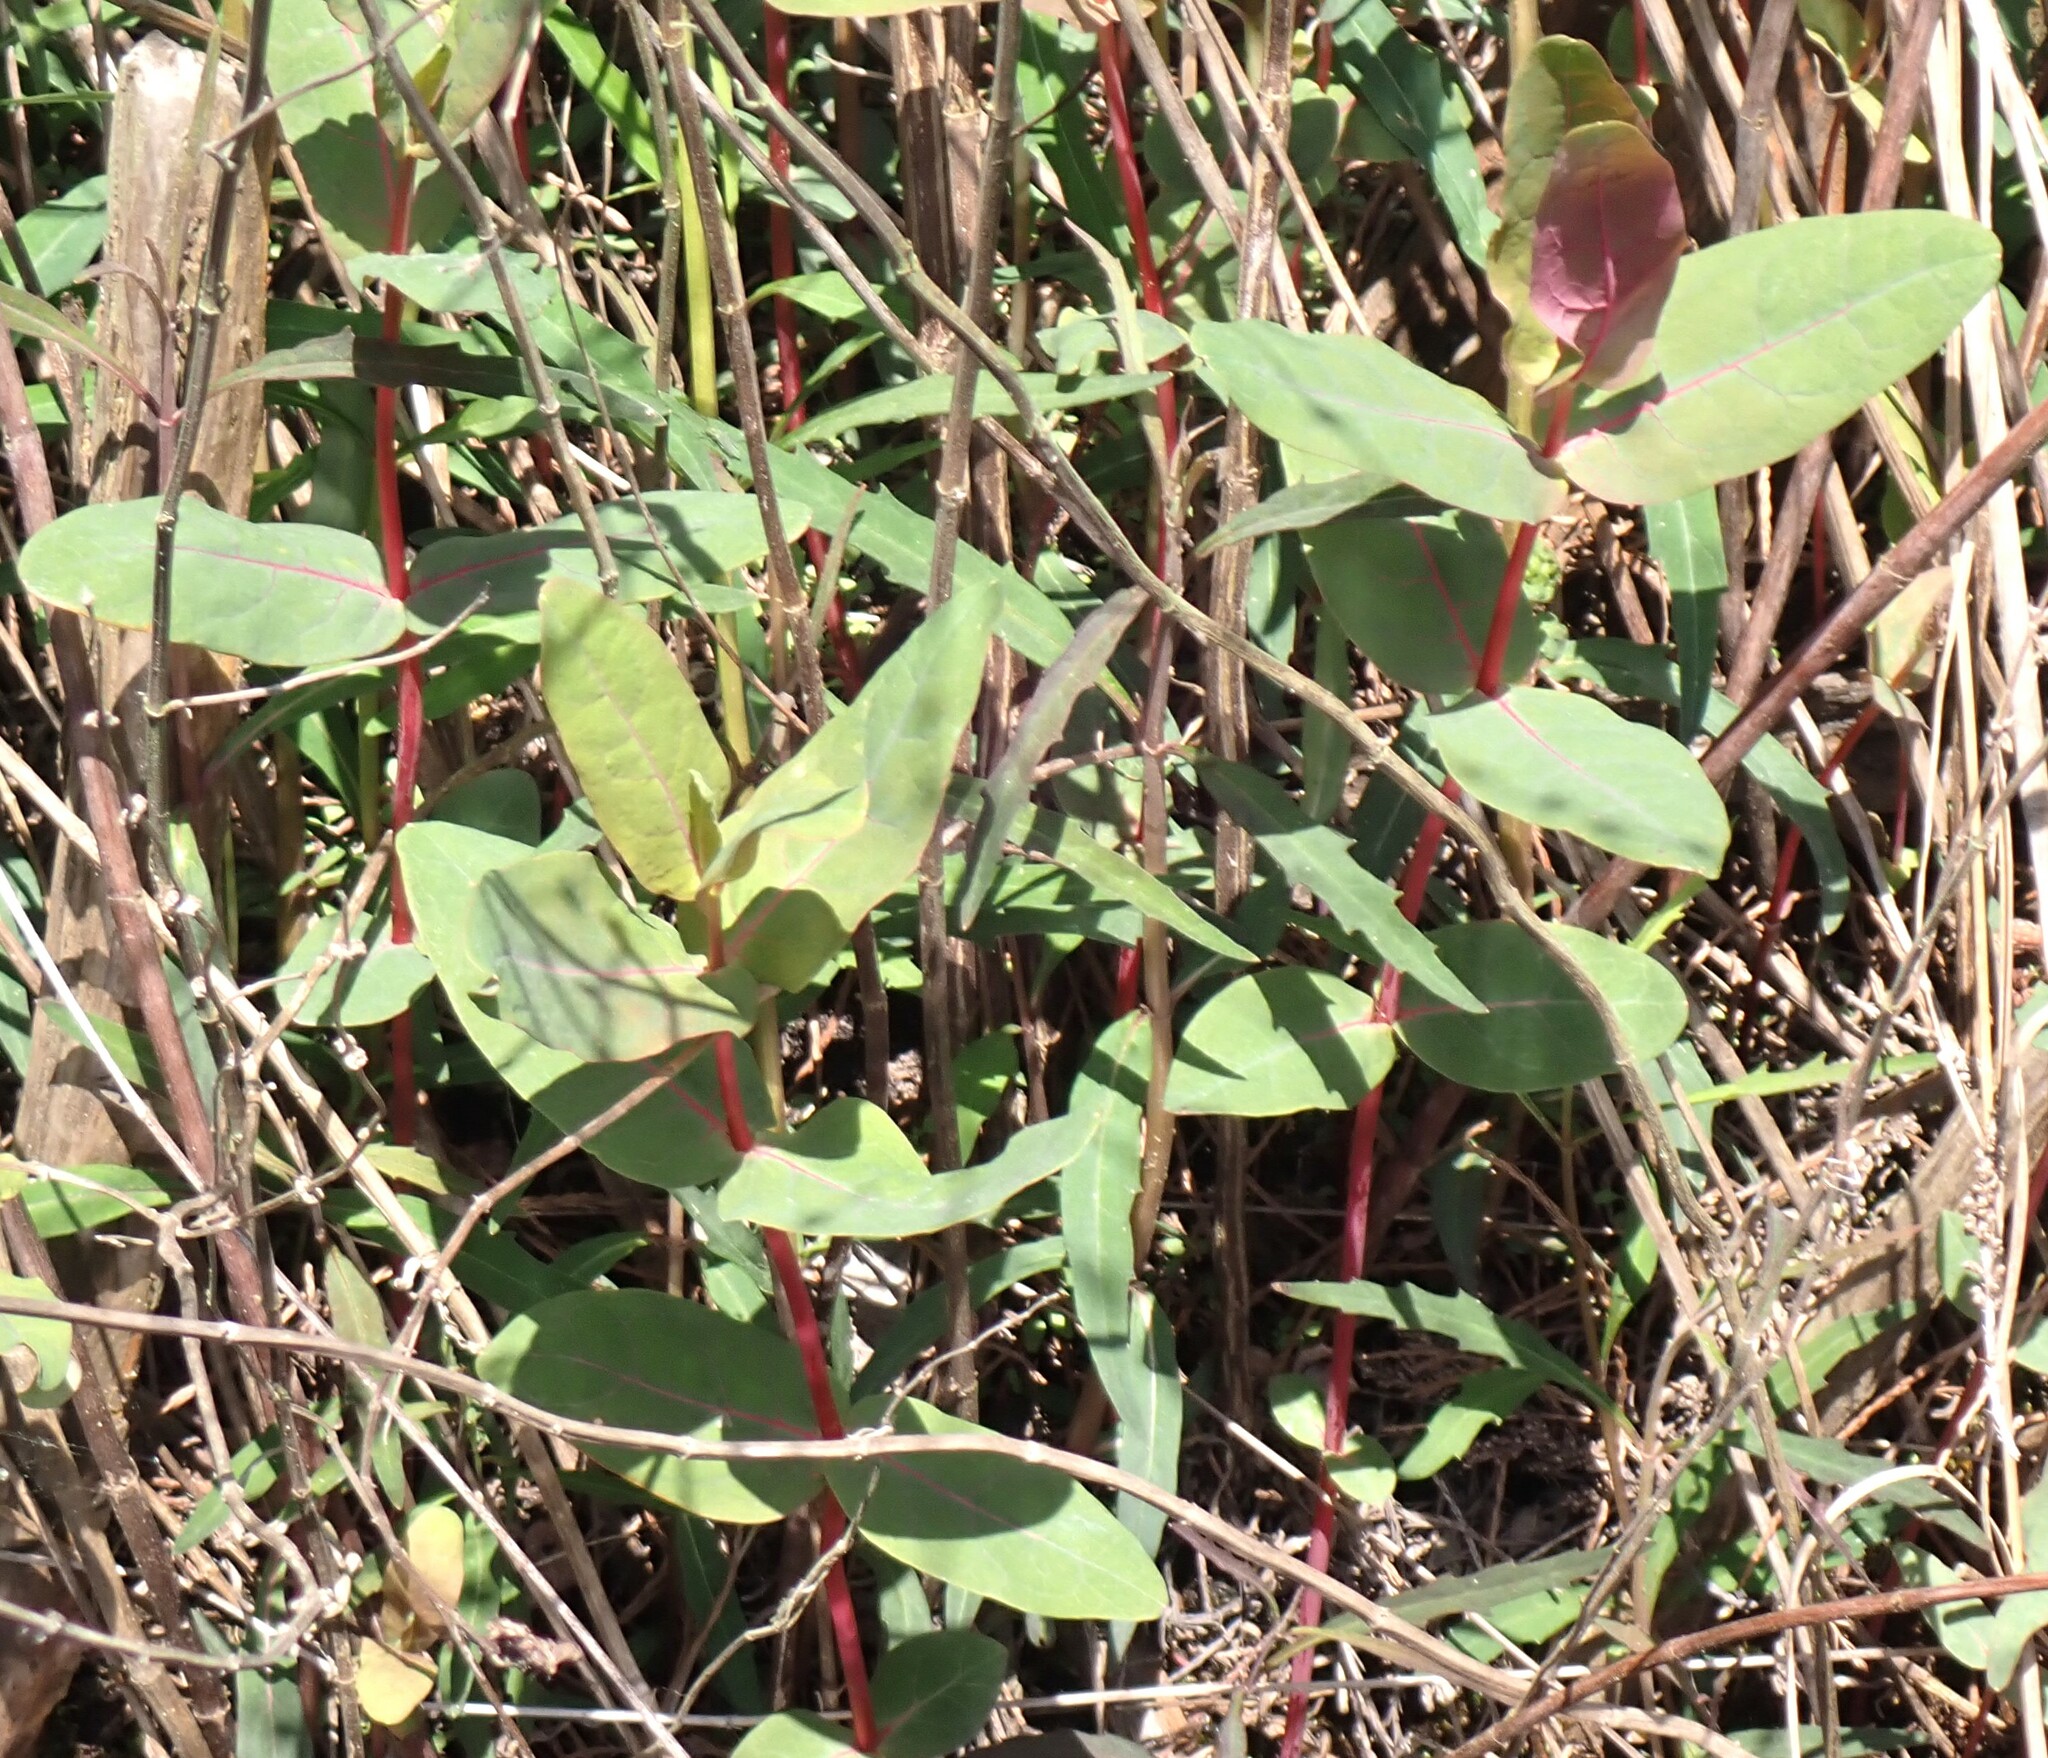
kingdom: Plantae
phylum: Tracheophyta
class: Magnoliopsida
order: Malpighiales
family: Hypericaceae
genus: Triadenum
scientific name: Triadenum virginicum
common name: Marsh st. john's-wort
